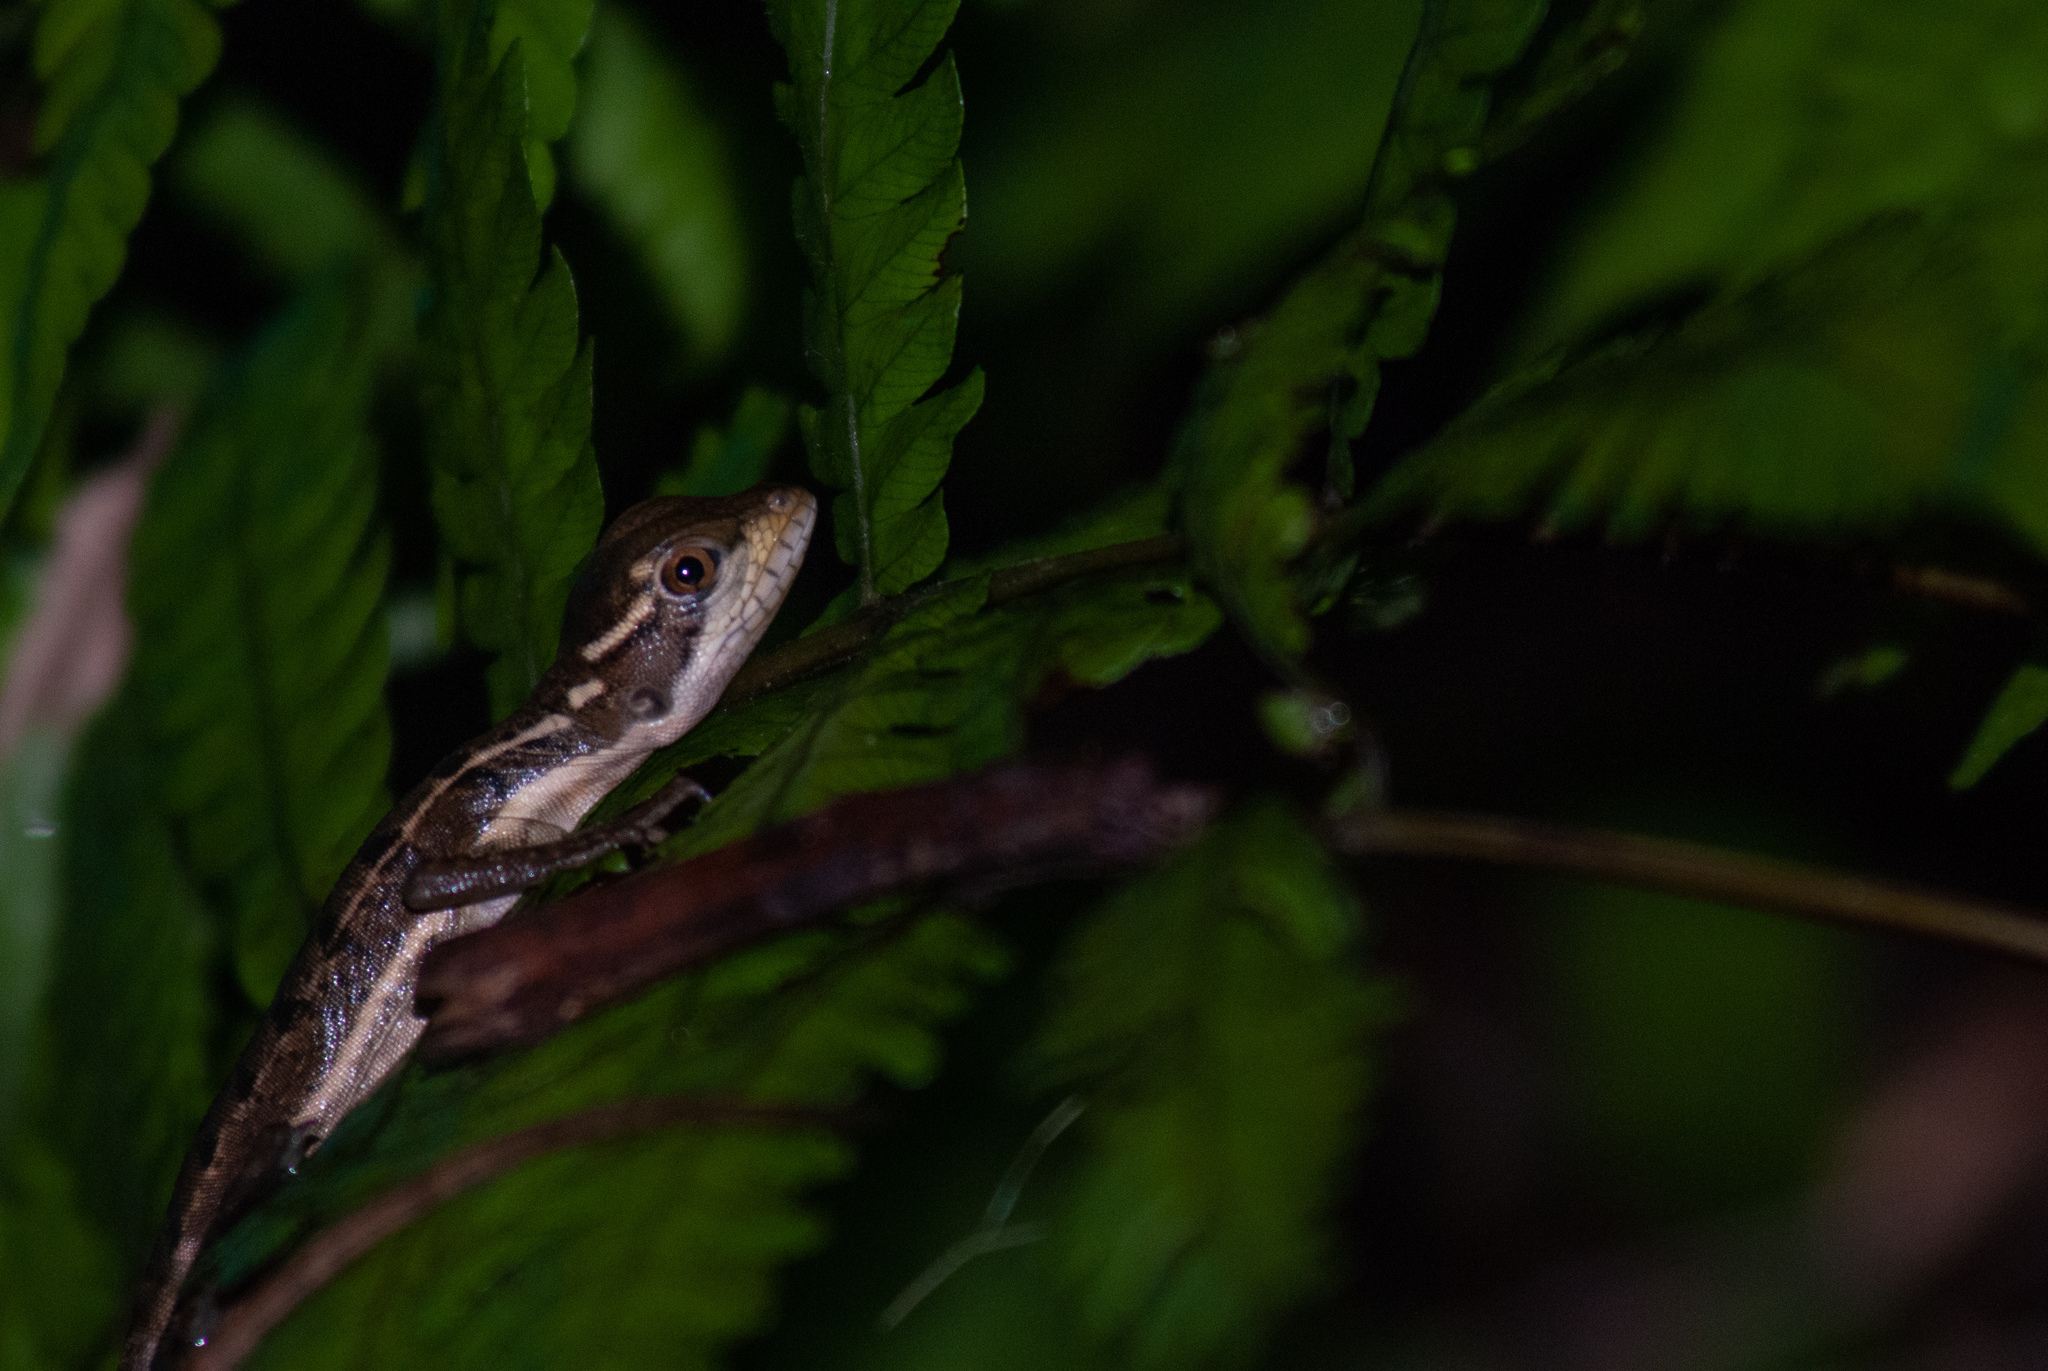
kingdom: Animalia
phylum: Chordata
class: Squamata
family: Corytophanidae
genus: Basiliscus
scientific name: Basiliscus basiliscus
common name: Common basilisk
